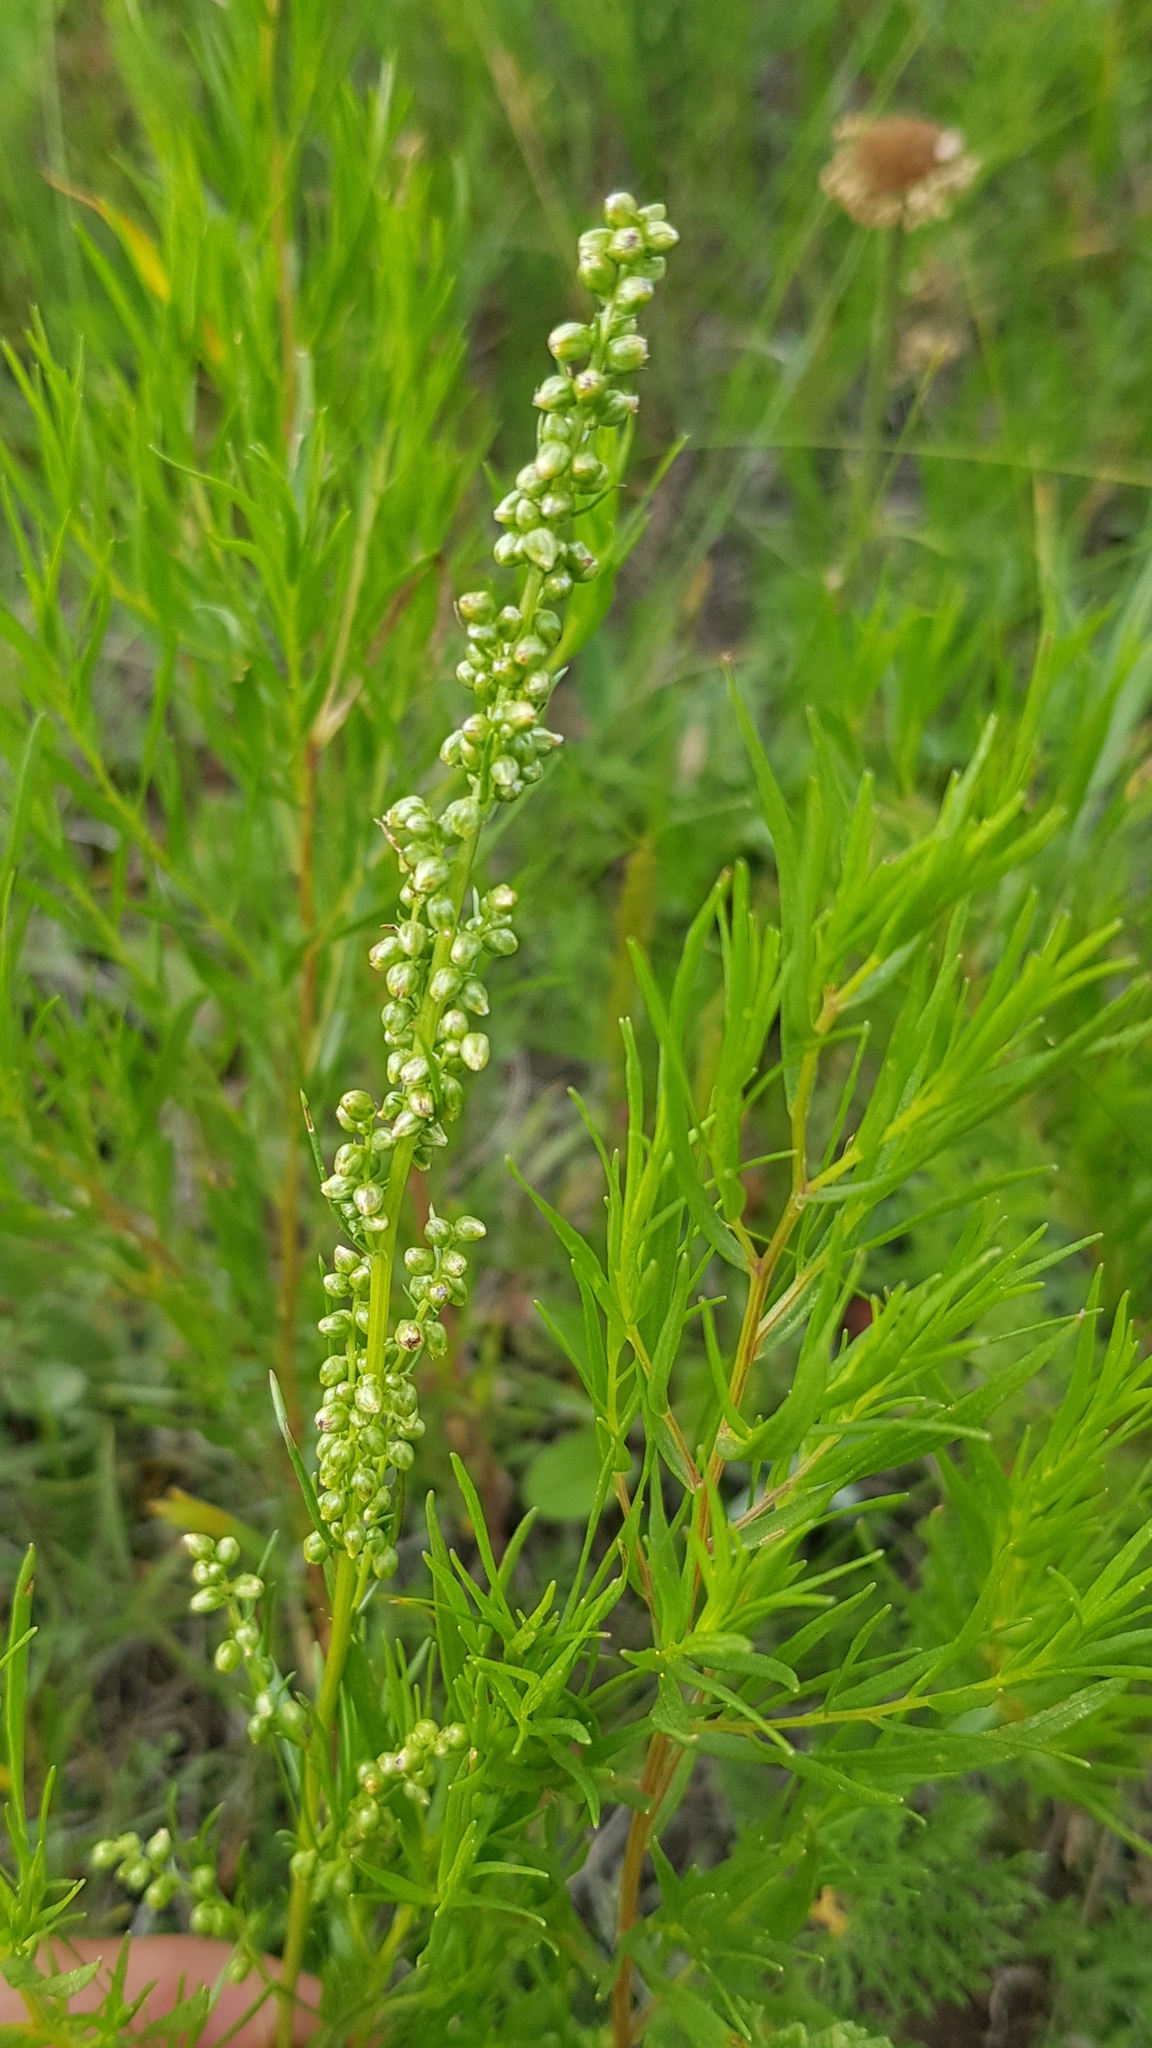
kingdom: Plantae
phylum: Tracheophyta
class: Magnoliopsida
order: Asterales
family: Asteraceae
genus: Artemisia
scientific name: Artemisia dracunculus
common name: Tarragon
